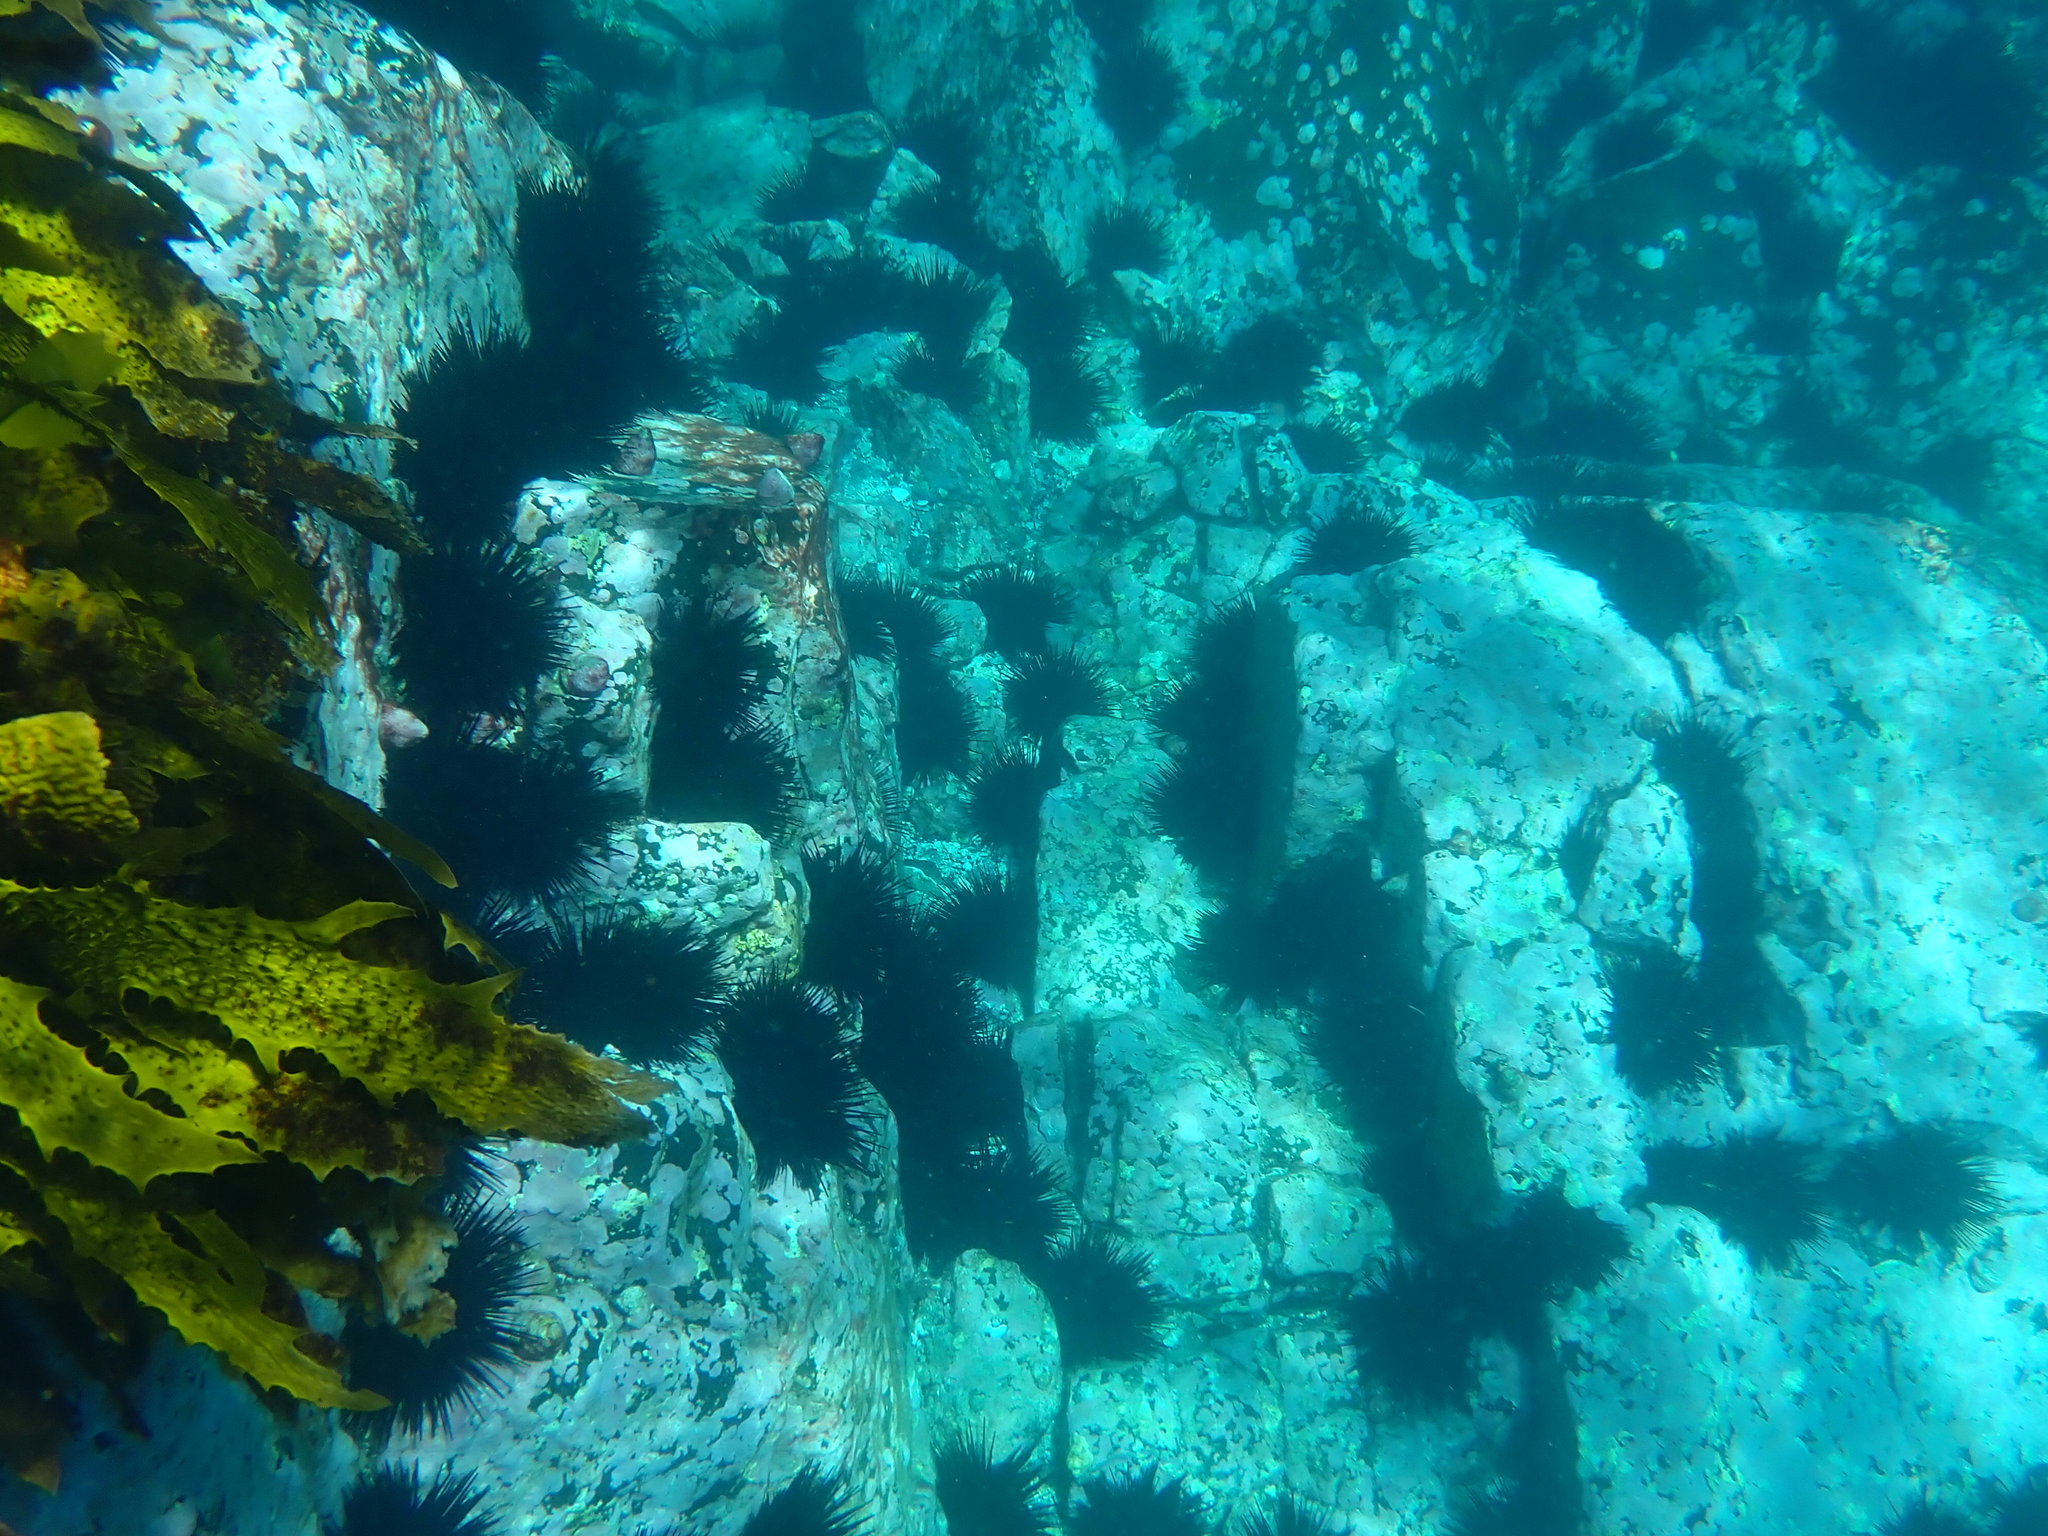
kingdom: Animalia
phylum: Echinodermata
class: Echinoidea
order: Diadematoida
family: Diadematidae
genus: Centrostephanus
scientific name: Centrostephanus rodgersii
